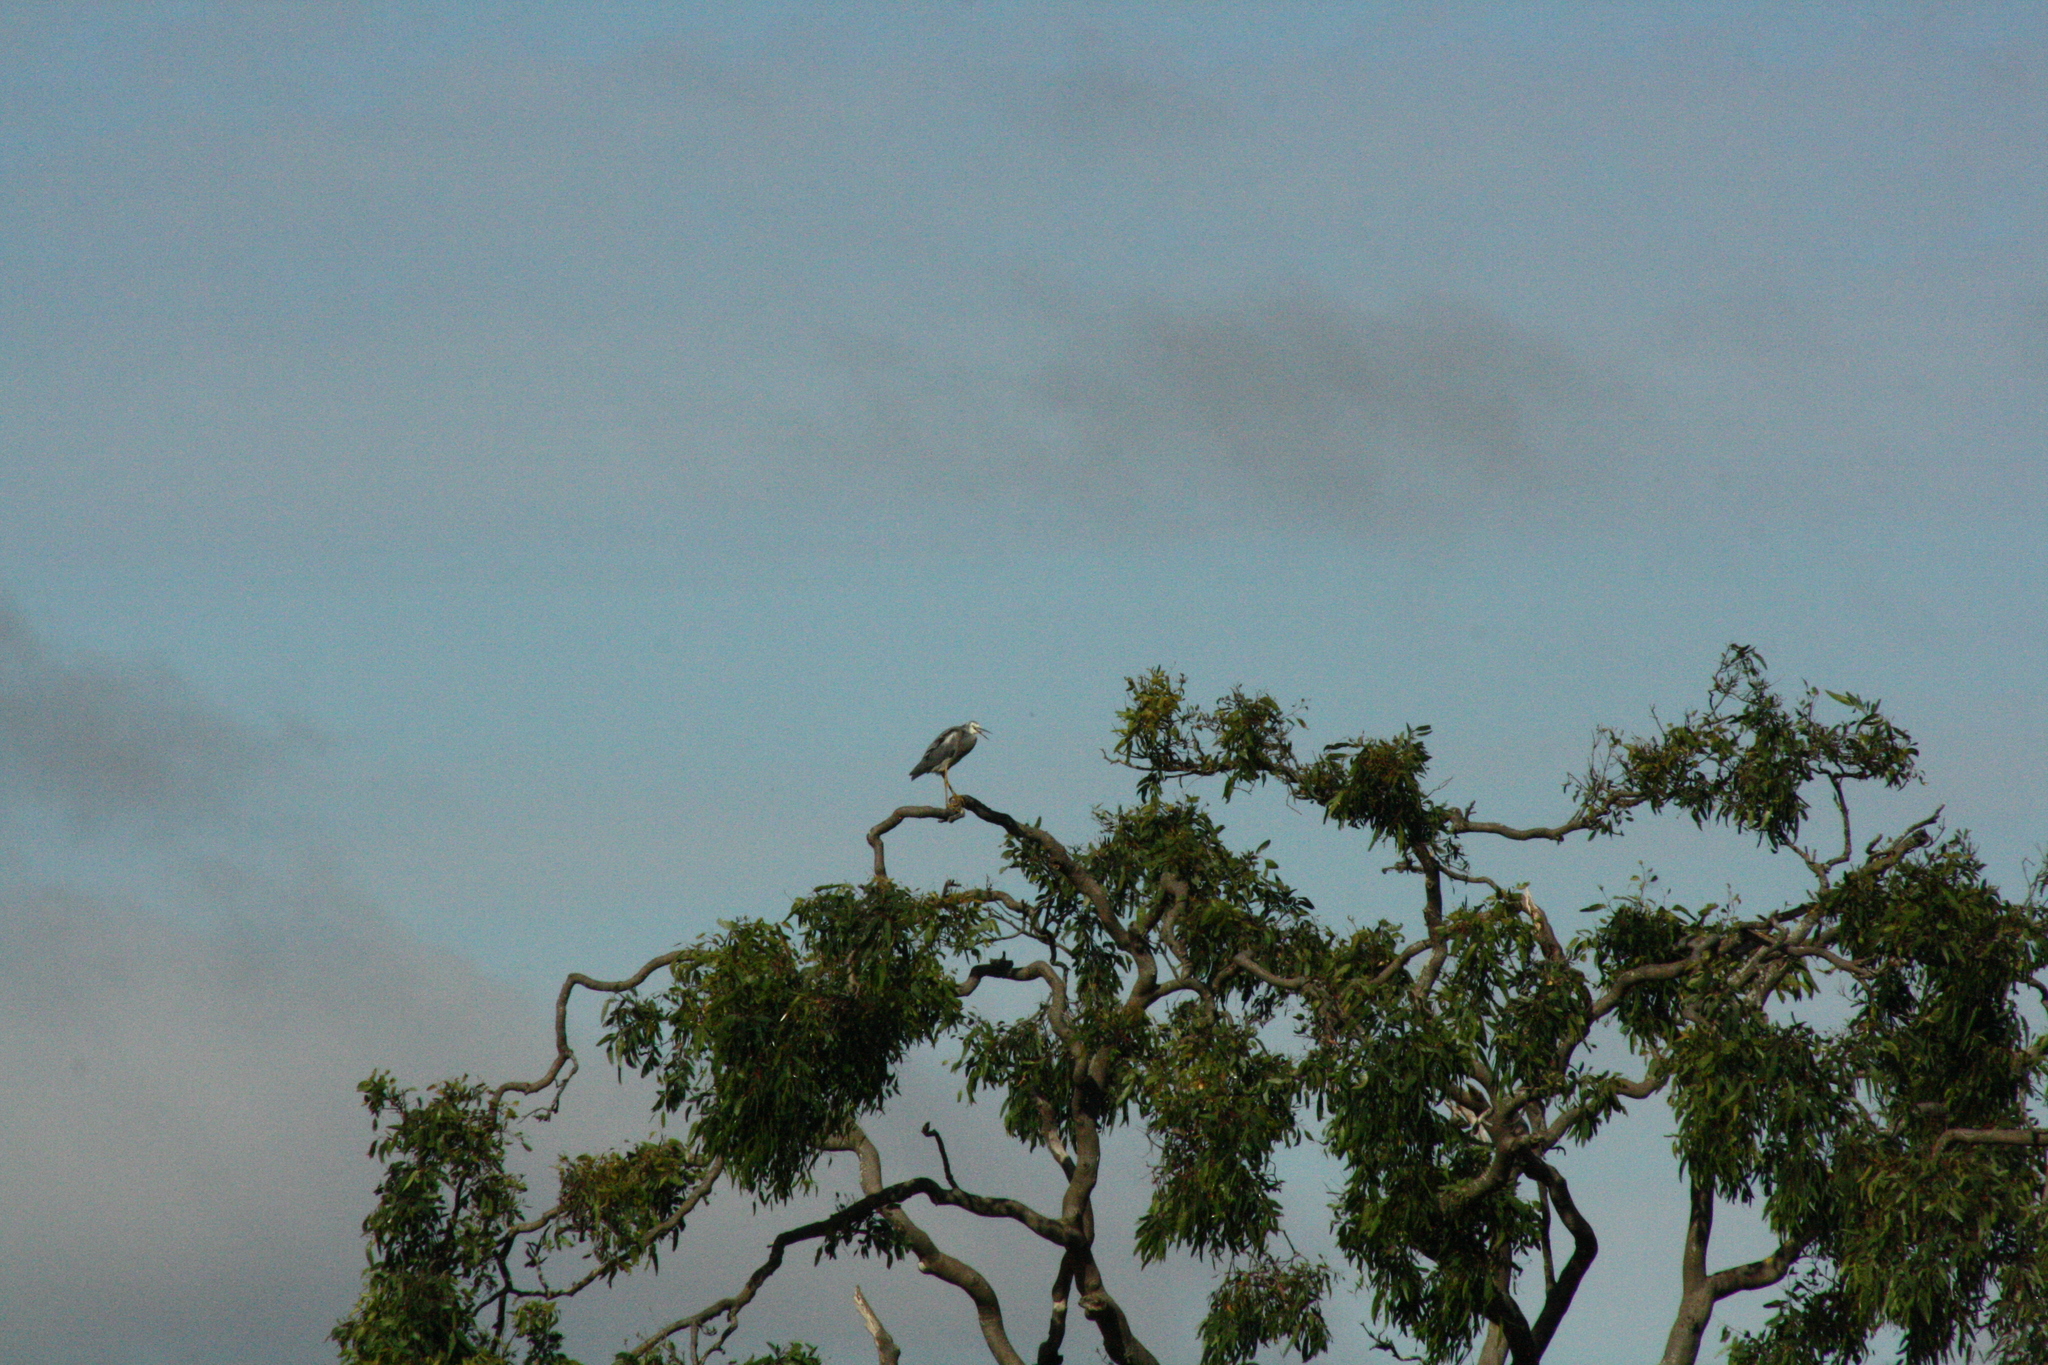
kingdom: Animalia
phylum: Chordata
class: Aves
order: Pelecaniformes
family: Ardeidae
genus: Egretta
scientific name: Egretta novaehollandiae
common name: White-faced heron
